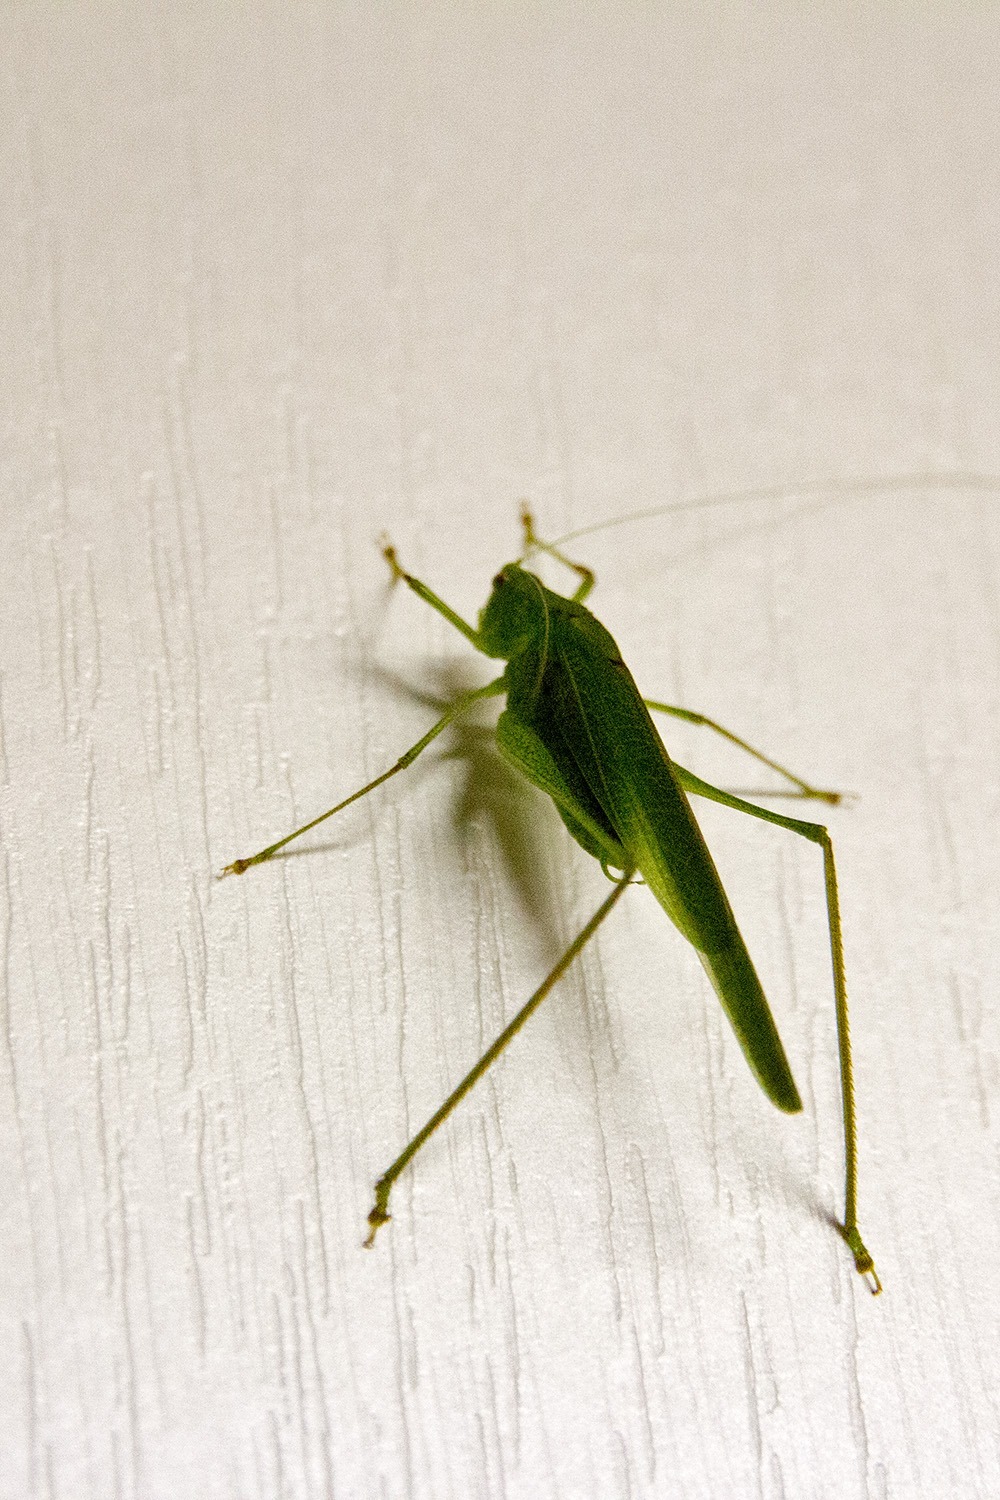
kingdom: Animalia
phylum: Arthropoda
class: Insecta
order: Orthoptera
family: Tettigoniidae
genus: Phaneroptera
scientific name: Phaneroptera nana
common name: Southern sickle bush-cricket
